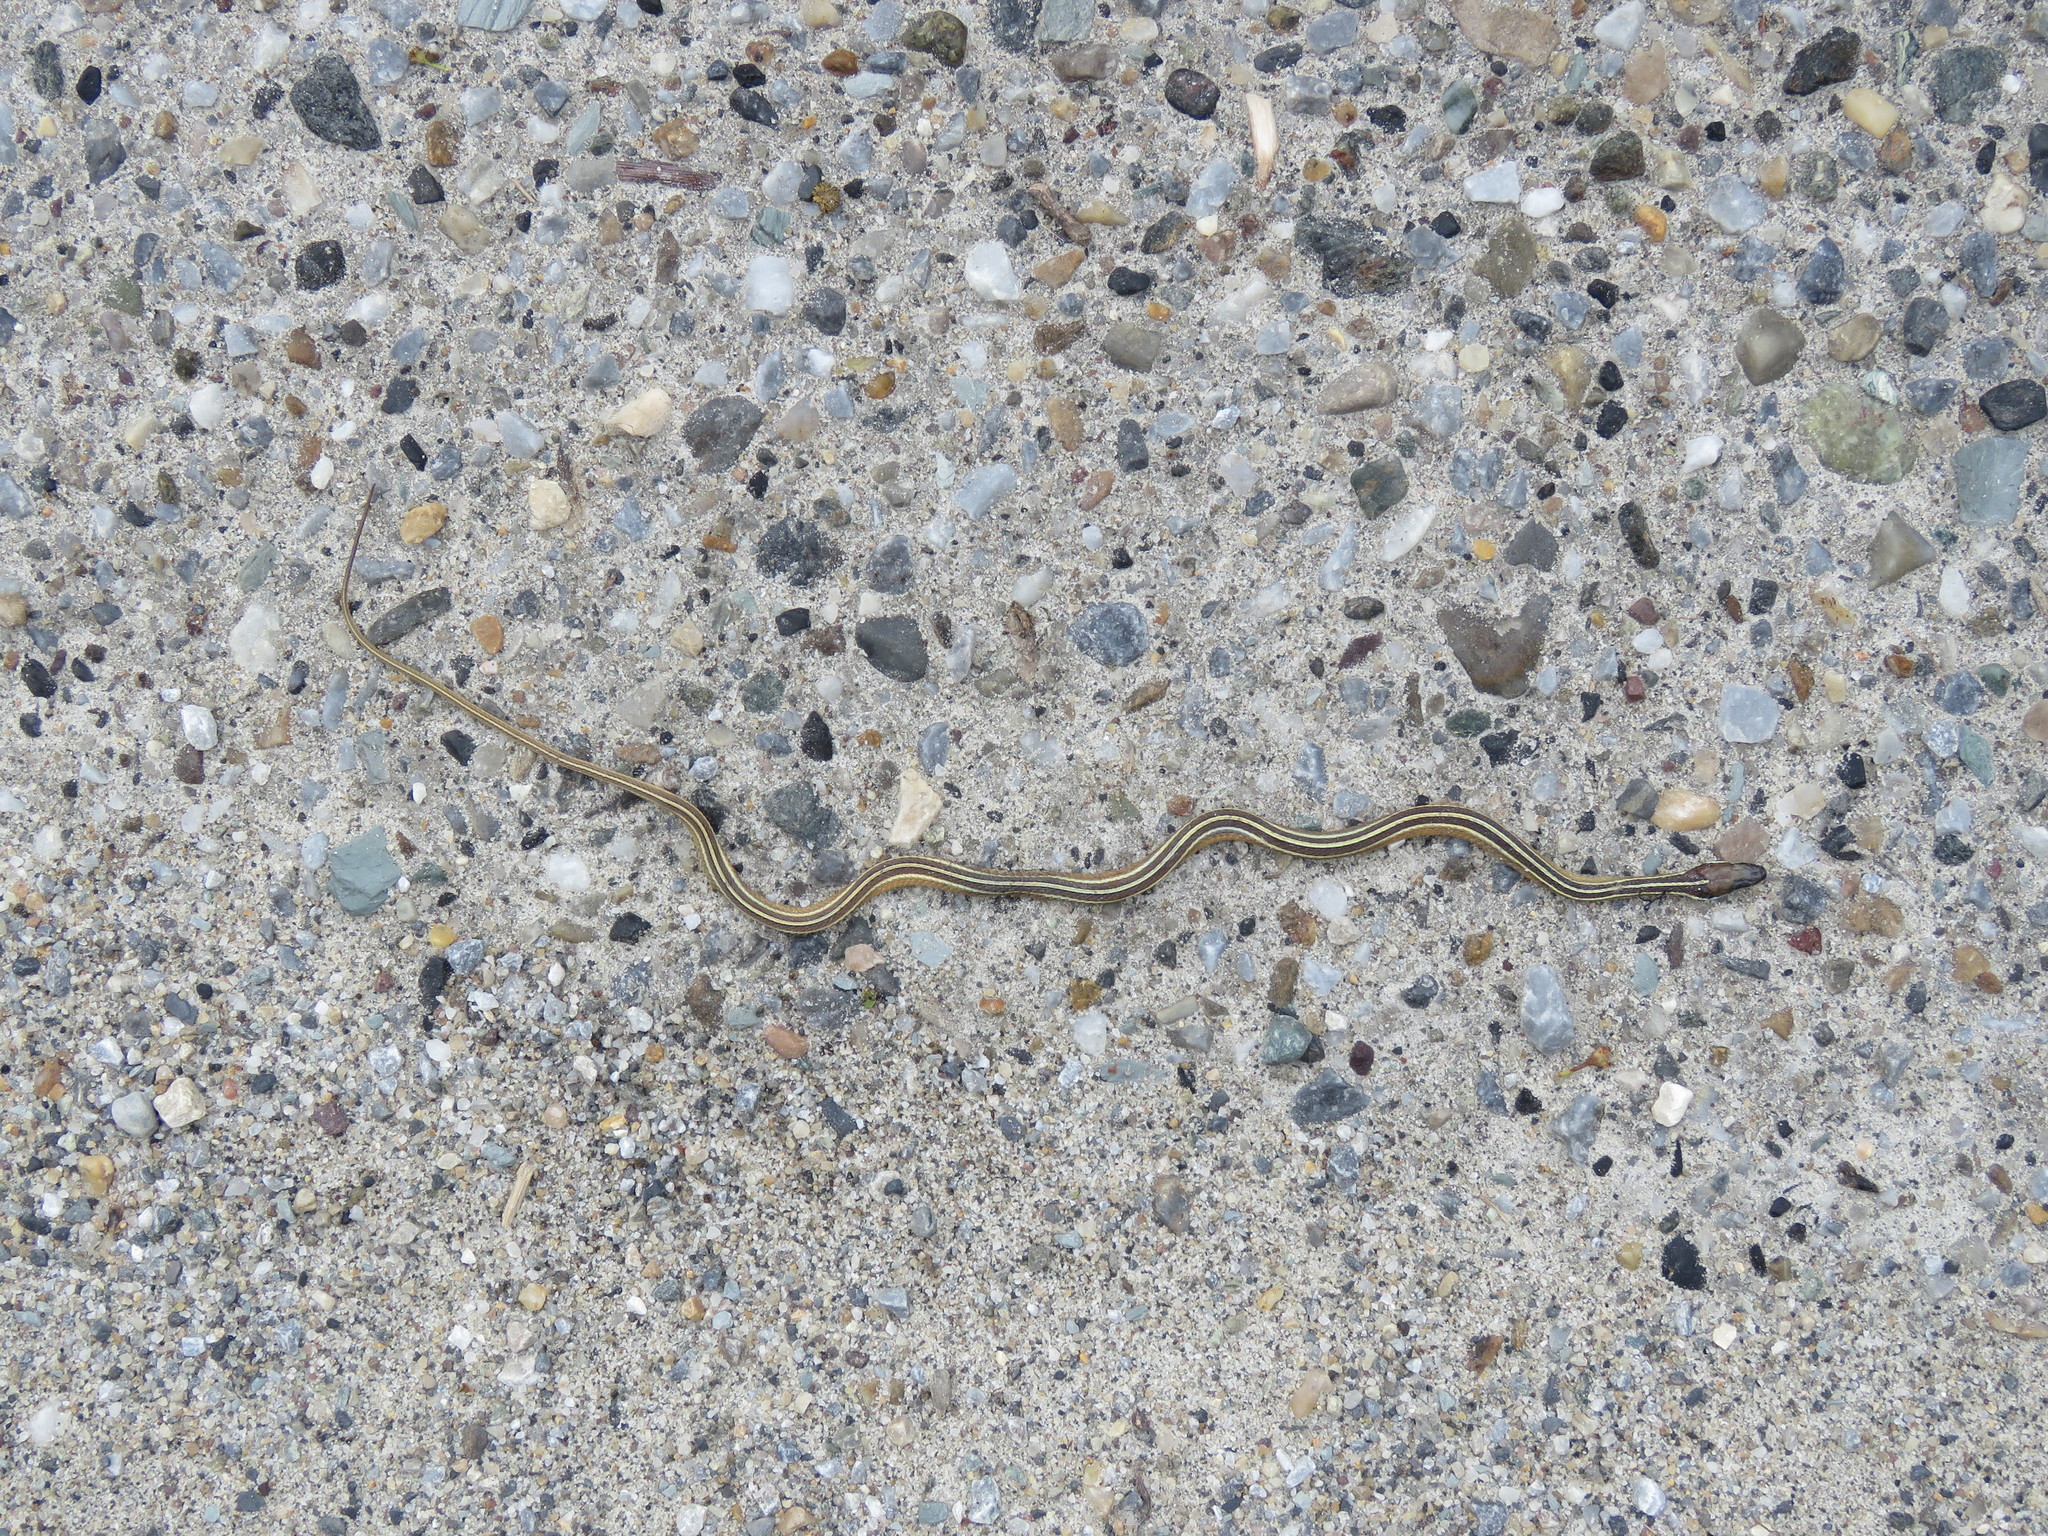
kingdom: Animalia
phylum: Chordata
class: Squamata
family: Colubridae
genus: Thamnophis
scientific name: Thamnophis saurita
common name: Eastern ribbonsnake
